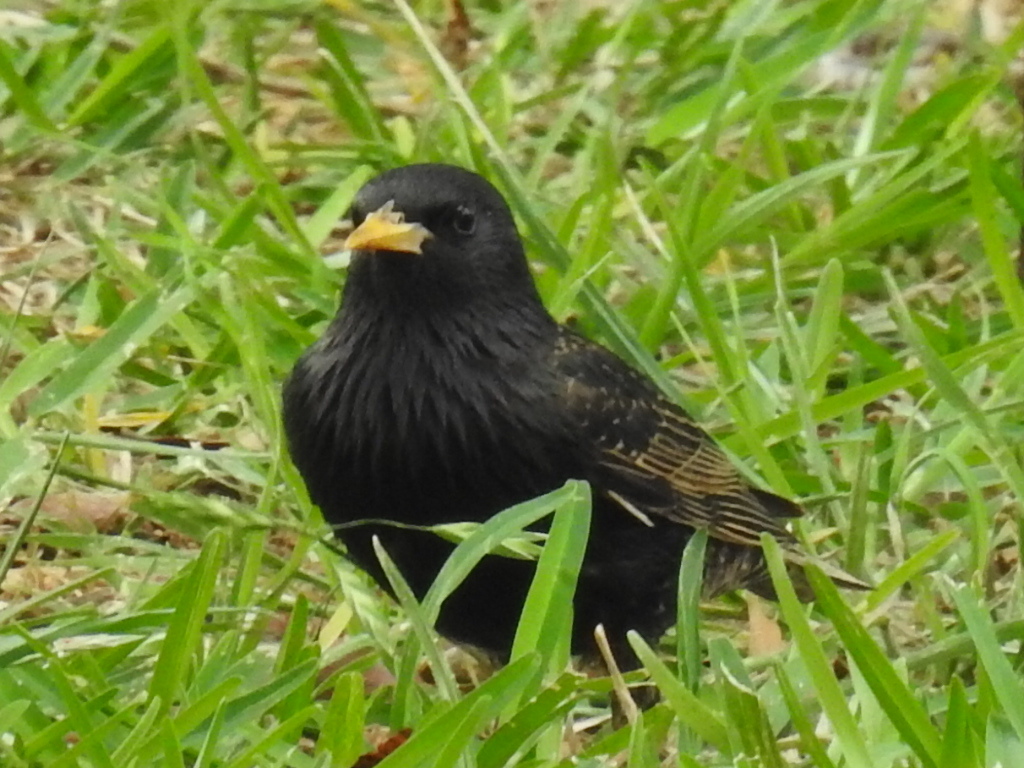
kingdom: Animalia
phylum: Chordata
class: Aves
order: Passeriformes
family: Sturnidae
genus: Sturnus
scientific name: Sturnus vulgaris
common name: Common starling
